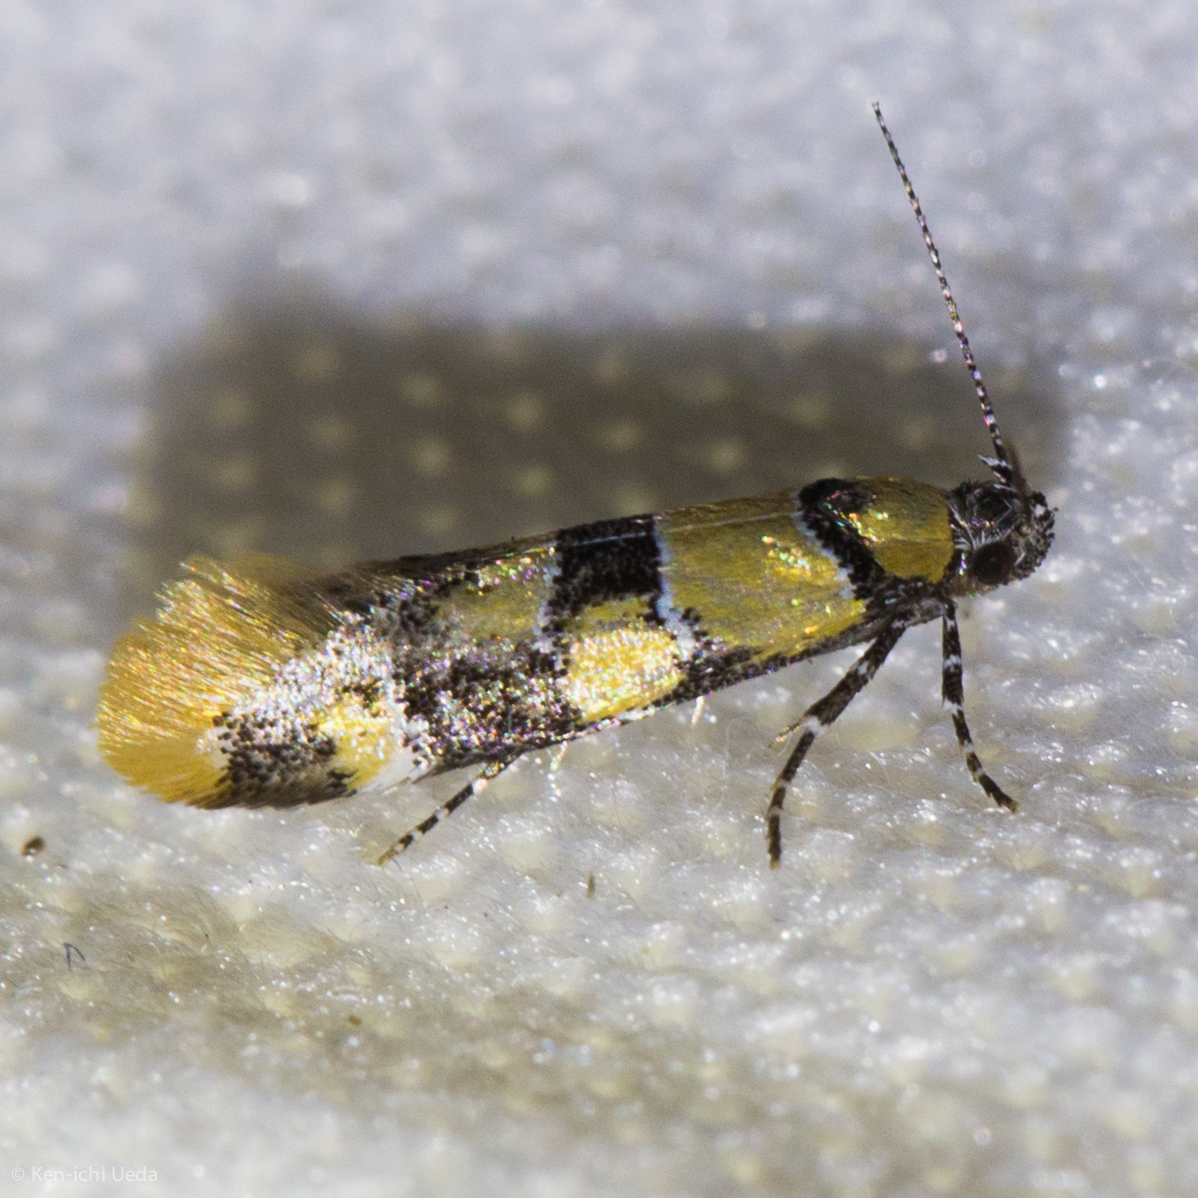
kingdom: Animalia
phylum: Arthropoda
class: Insecta
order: Lepidoptera
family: Oecophoridae
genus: Decantha
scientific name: Decantha tistra
